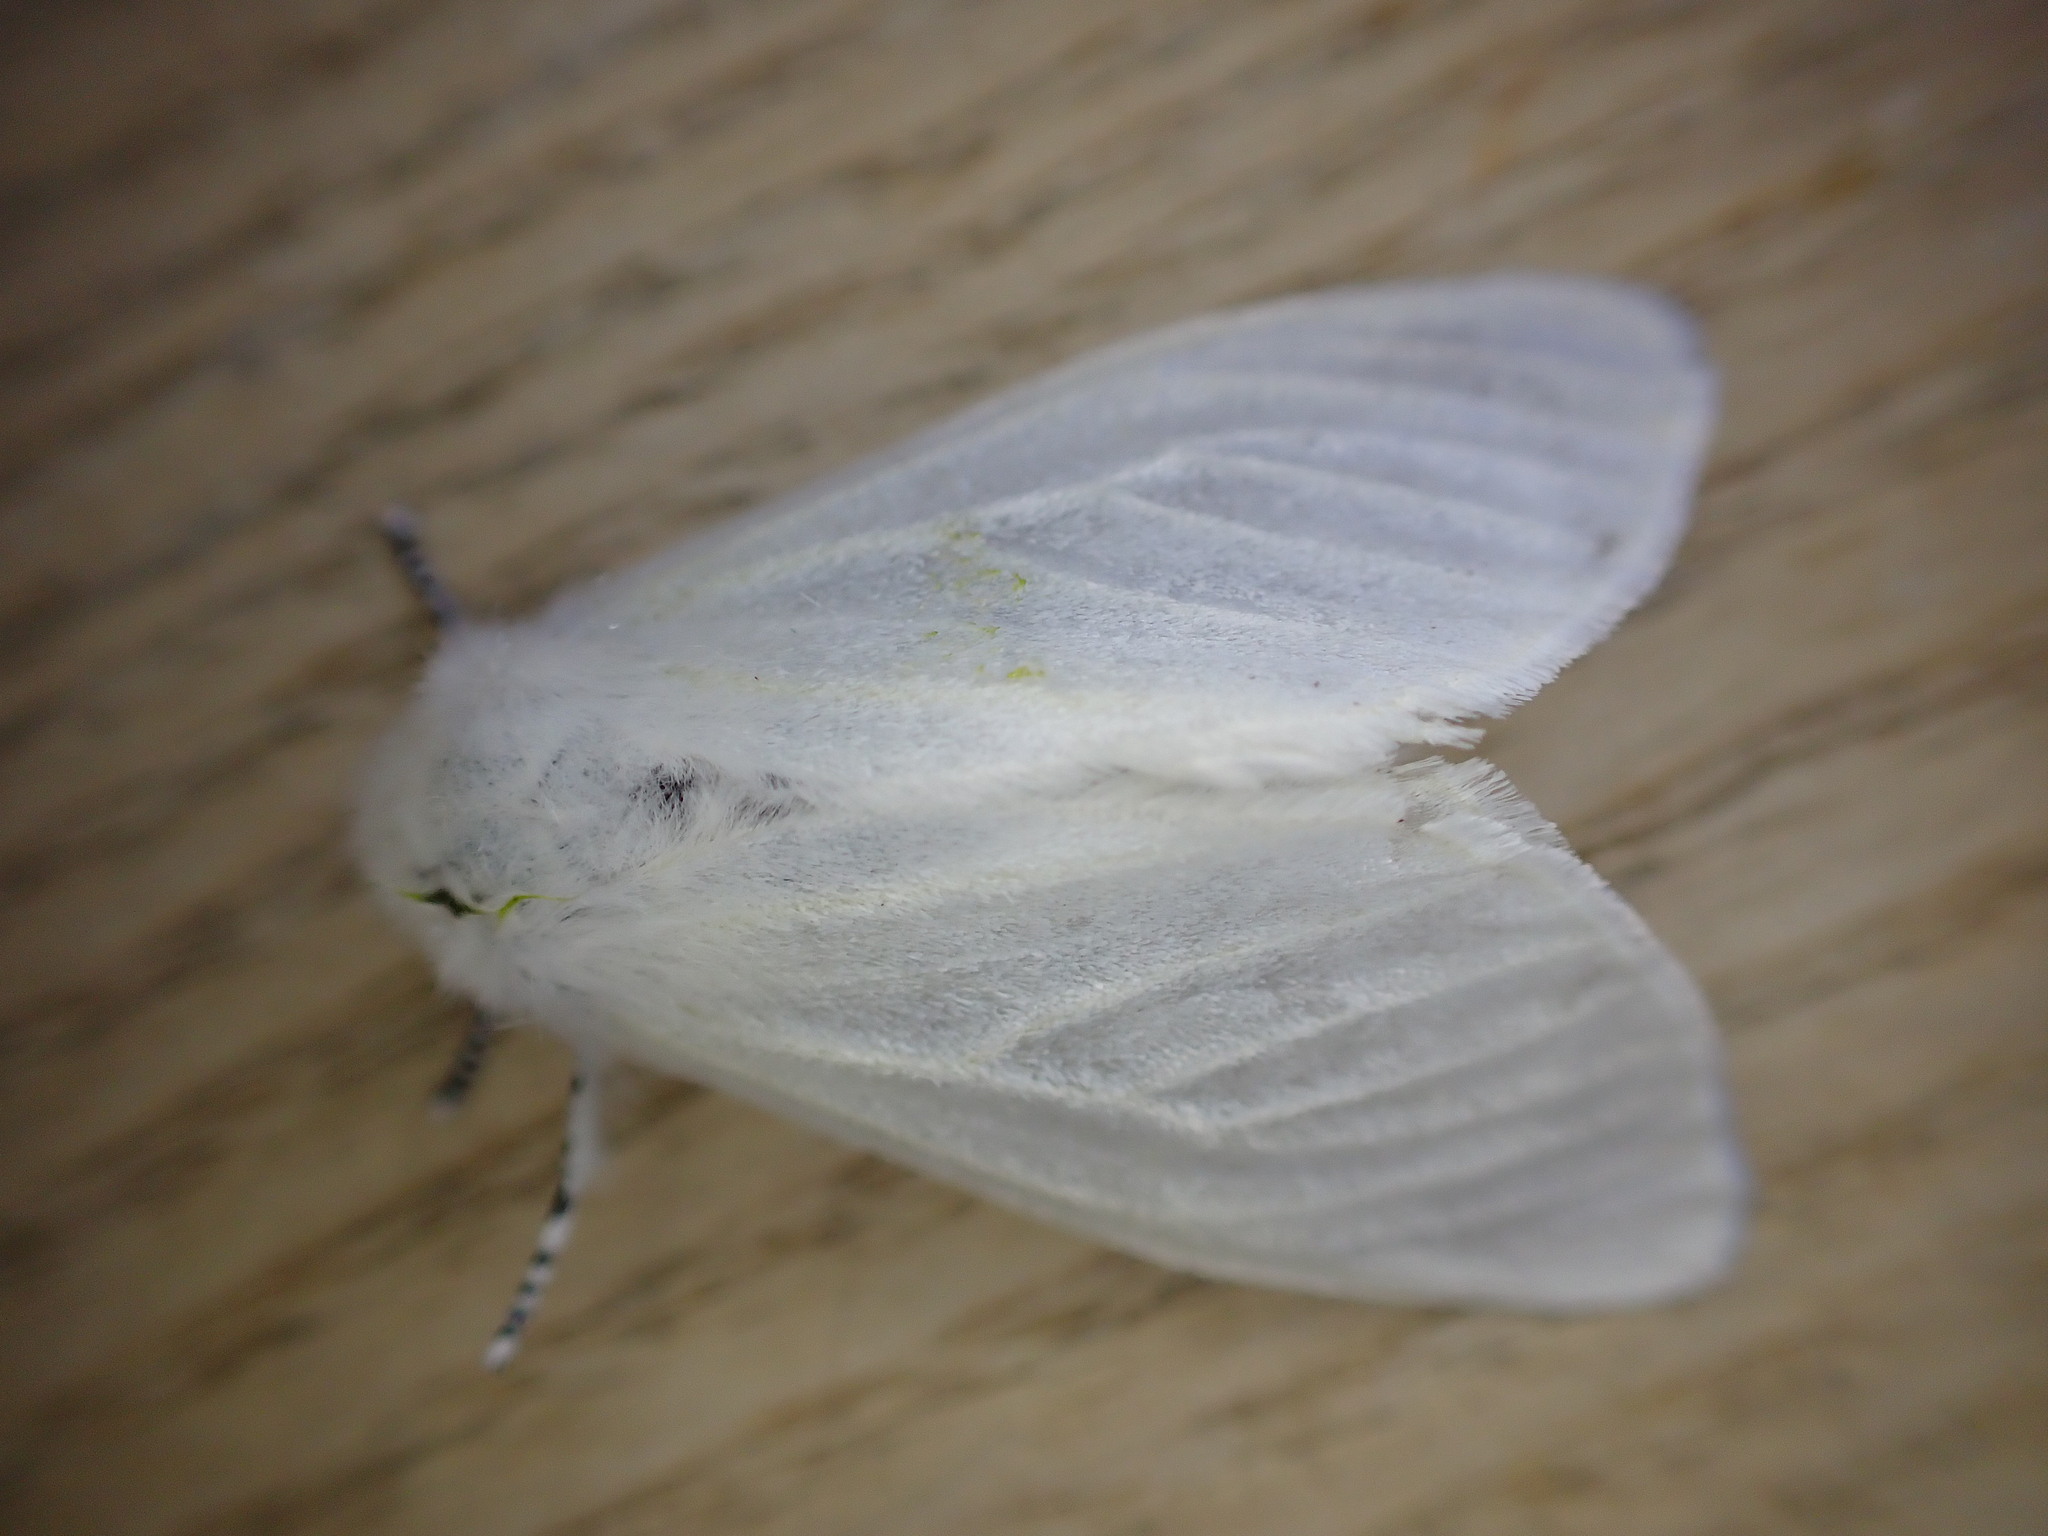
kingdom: Animalia
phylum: Arthropoda
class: Insecta
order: Lepidoptera
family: Erebidae
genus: Leucoma
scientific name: Leucoma salicis
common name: White satin moth
